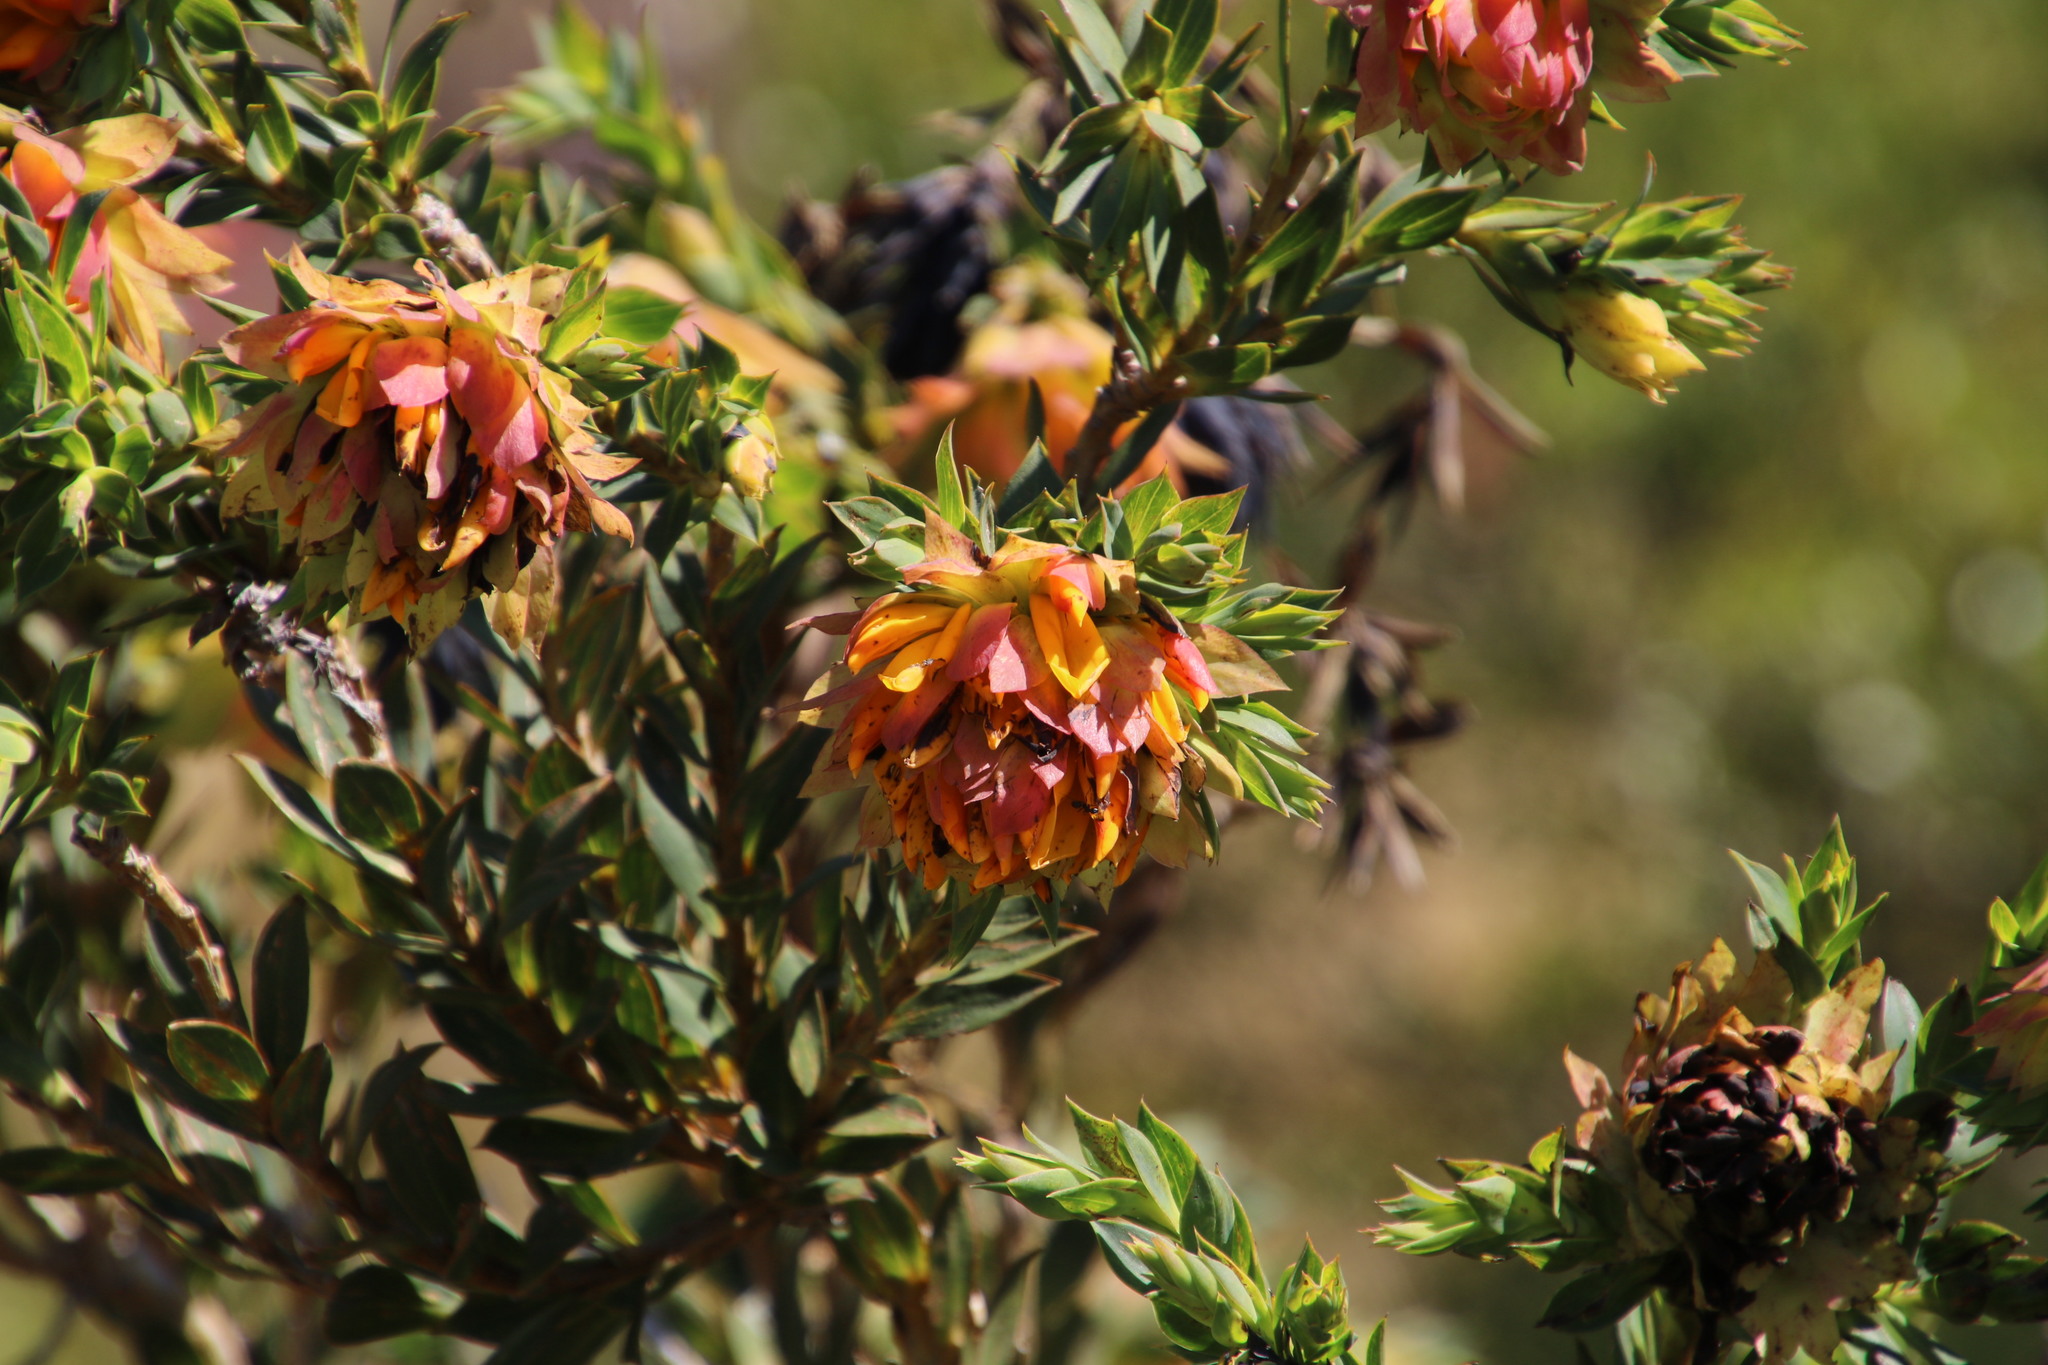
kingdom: Plantae
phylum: Tracheophyta
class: Magnoliopsida
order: Fabales
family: Fabaceae
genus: Liparia
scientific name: Liparia splendens
